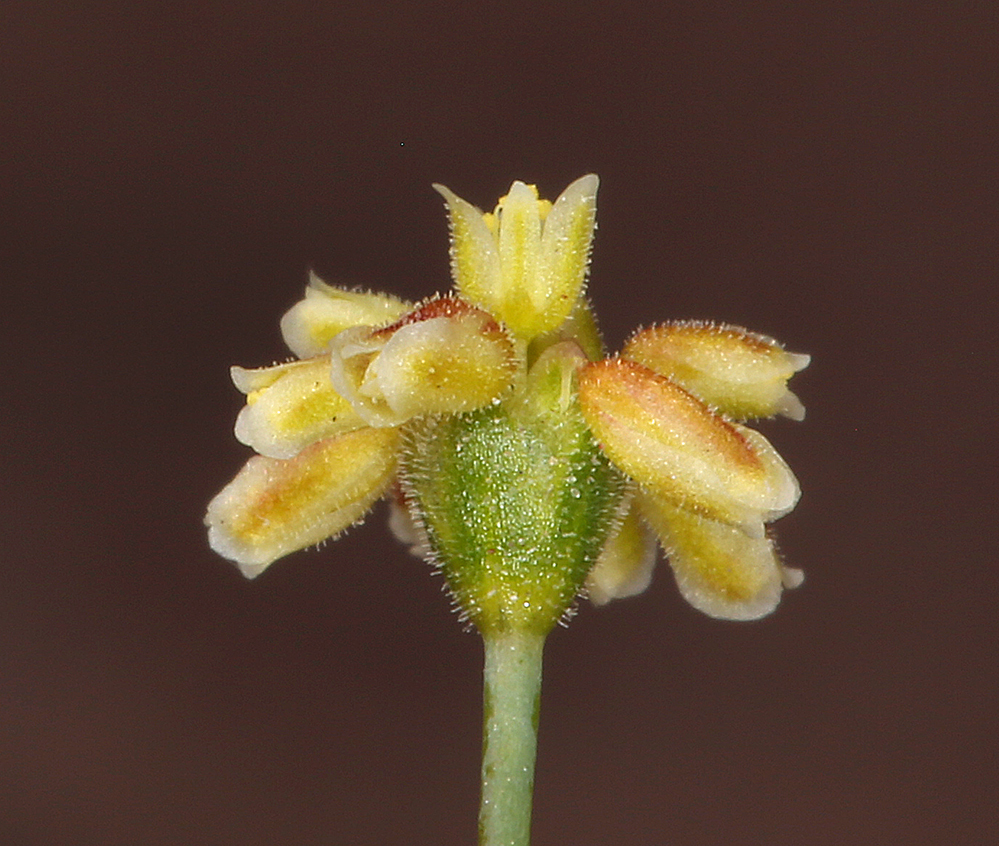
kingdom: Plantae
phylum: Tracheophyta
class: Magnoliopsida
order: Caryophyllales
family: Polygonaceae
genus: Eriogonum
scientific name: Eriogonum pusillum
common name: Yellow turbans
